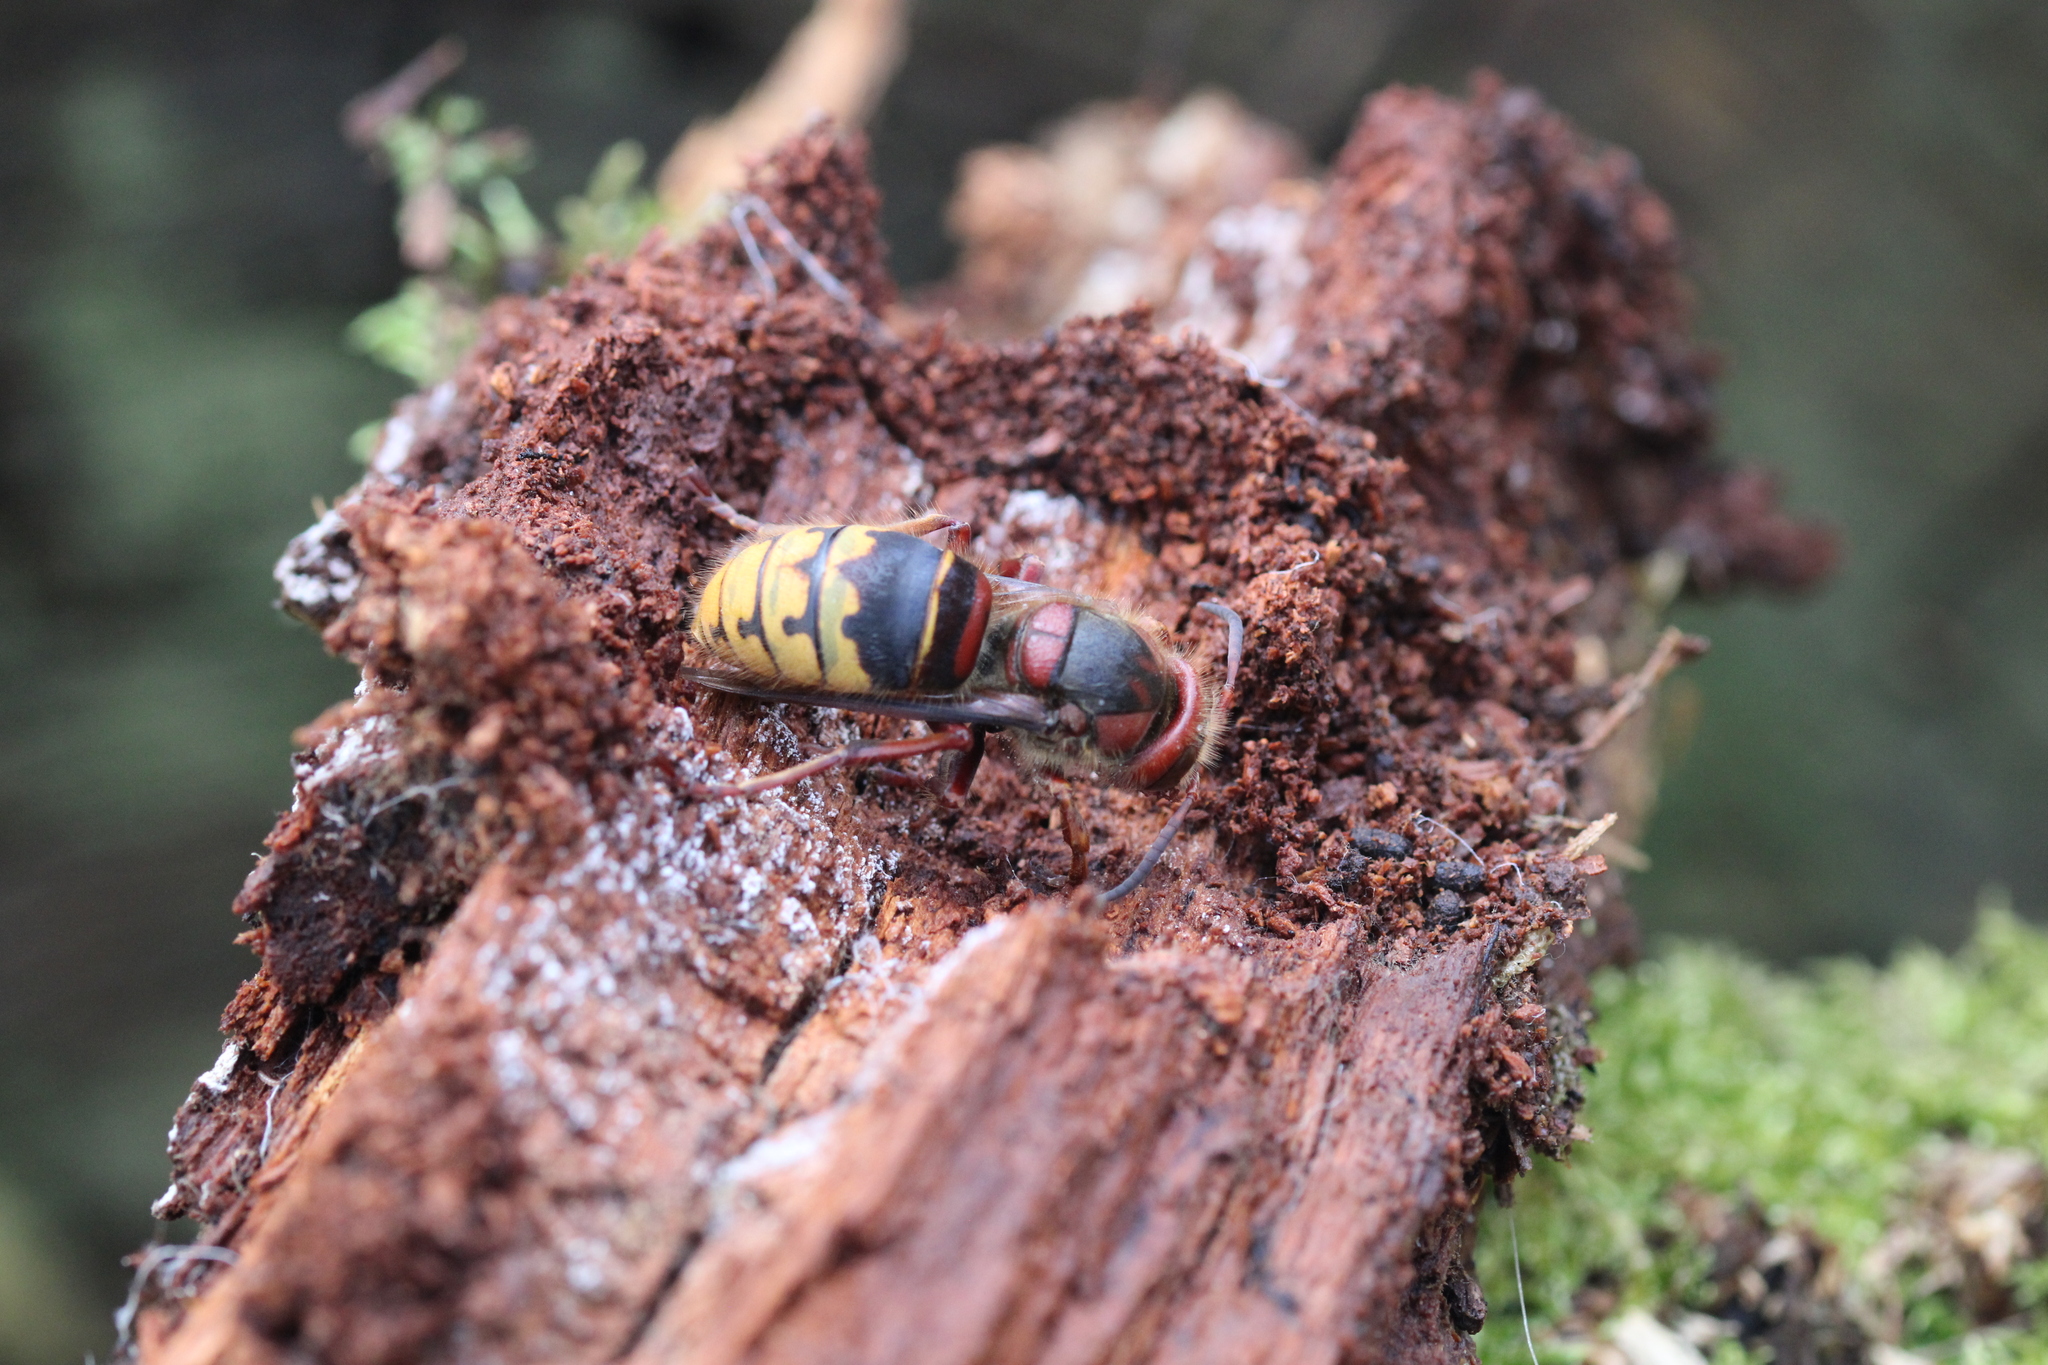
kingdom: Animalia
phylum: Arthropoda
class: Insecta
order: Hymenoptera
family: Vespidae
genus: Vespa
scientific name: Vespa crabro
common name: Hornet
